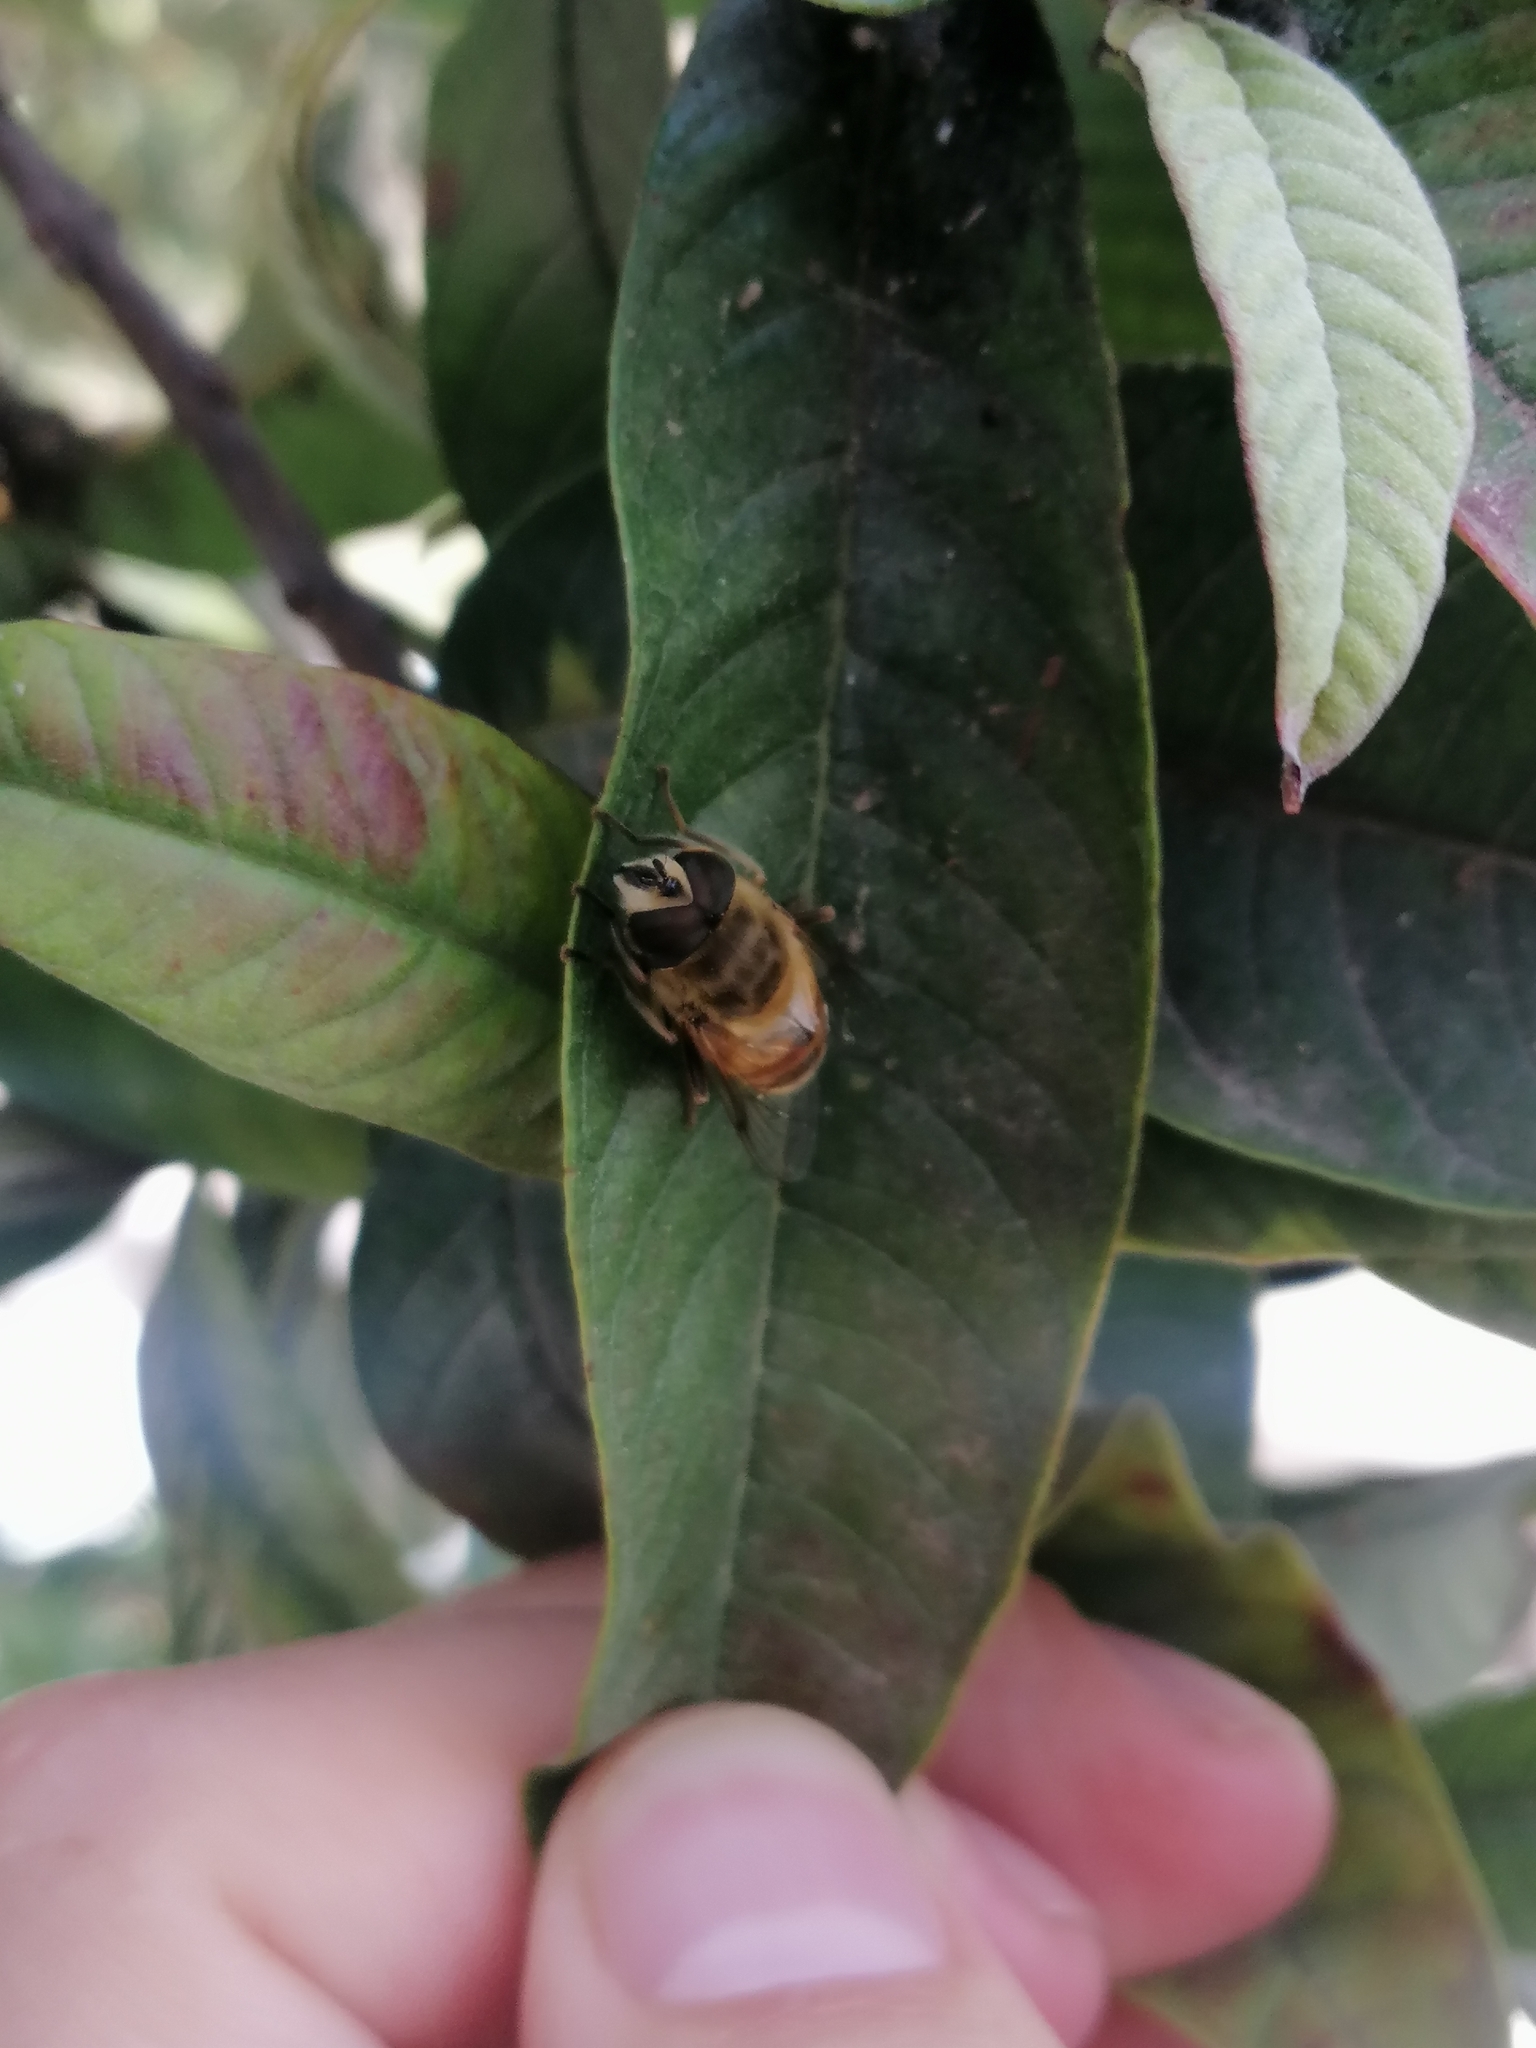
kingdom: Animalia
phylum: Arthropoda
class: Insecta
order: Diptera
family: Syrphidae
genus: Eristalis
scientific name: Eristalis tenax
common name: Drone fly
